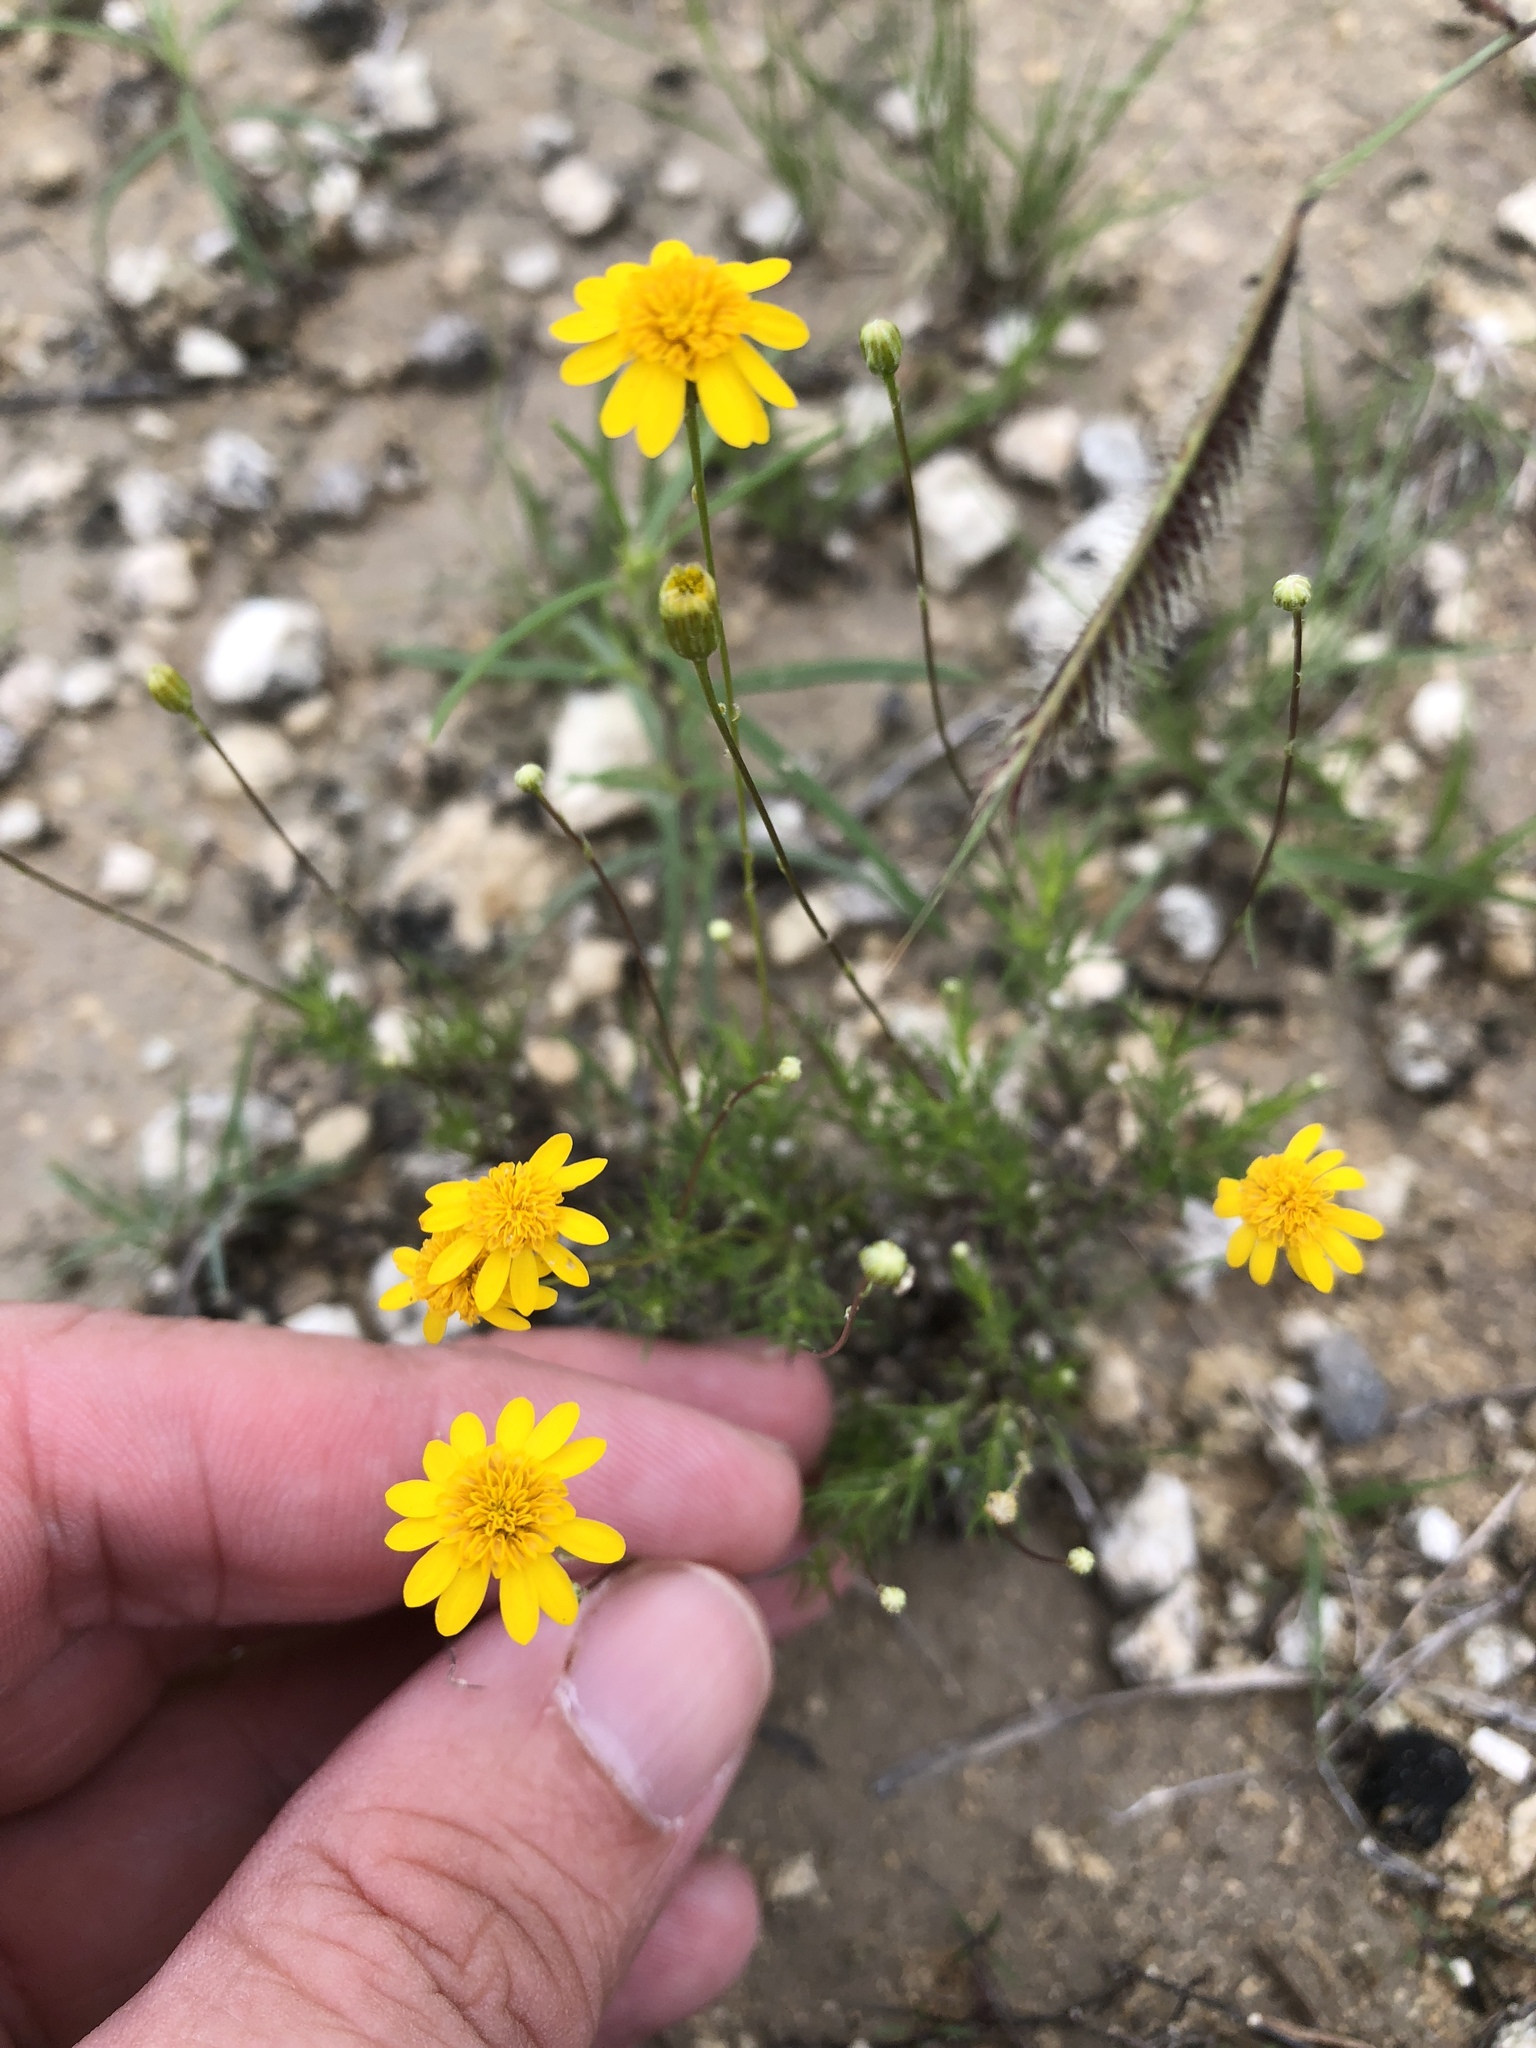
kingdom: Plantae
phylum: Tracheophyta
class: Magnoliopsida
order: Asterales
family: Asteraceae
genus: Thymophylla
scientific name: Thymophylla pentachaeta
